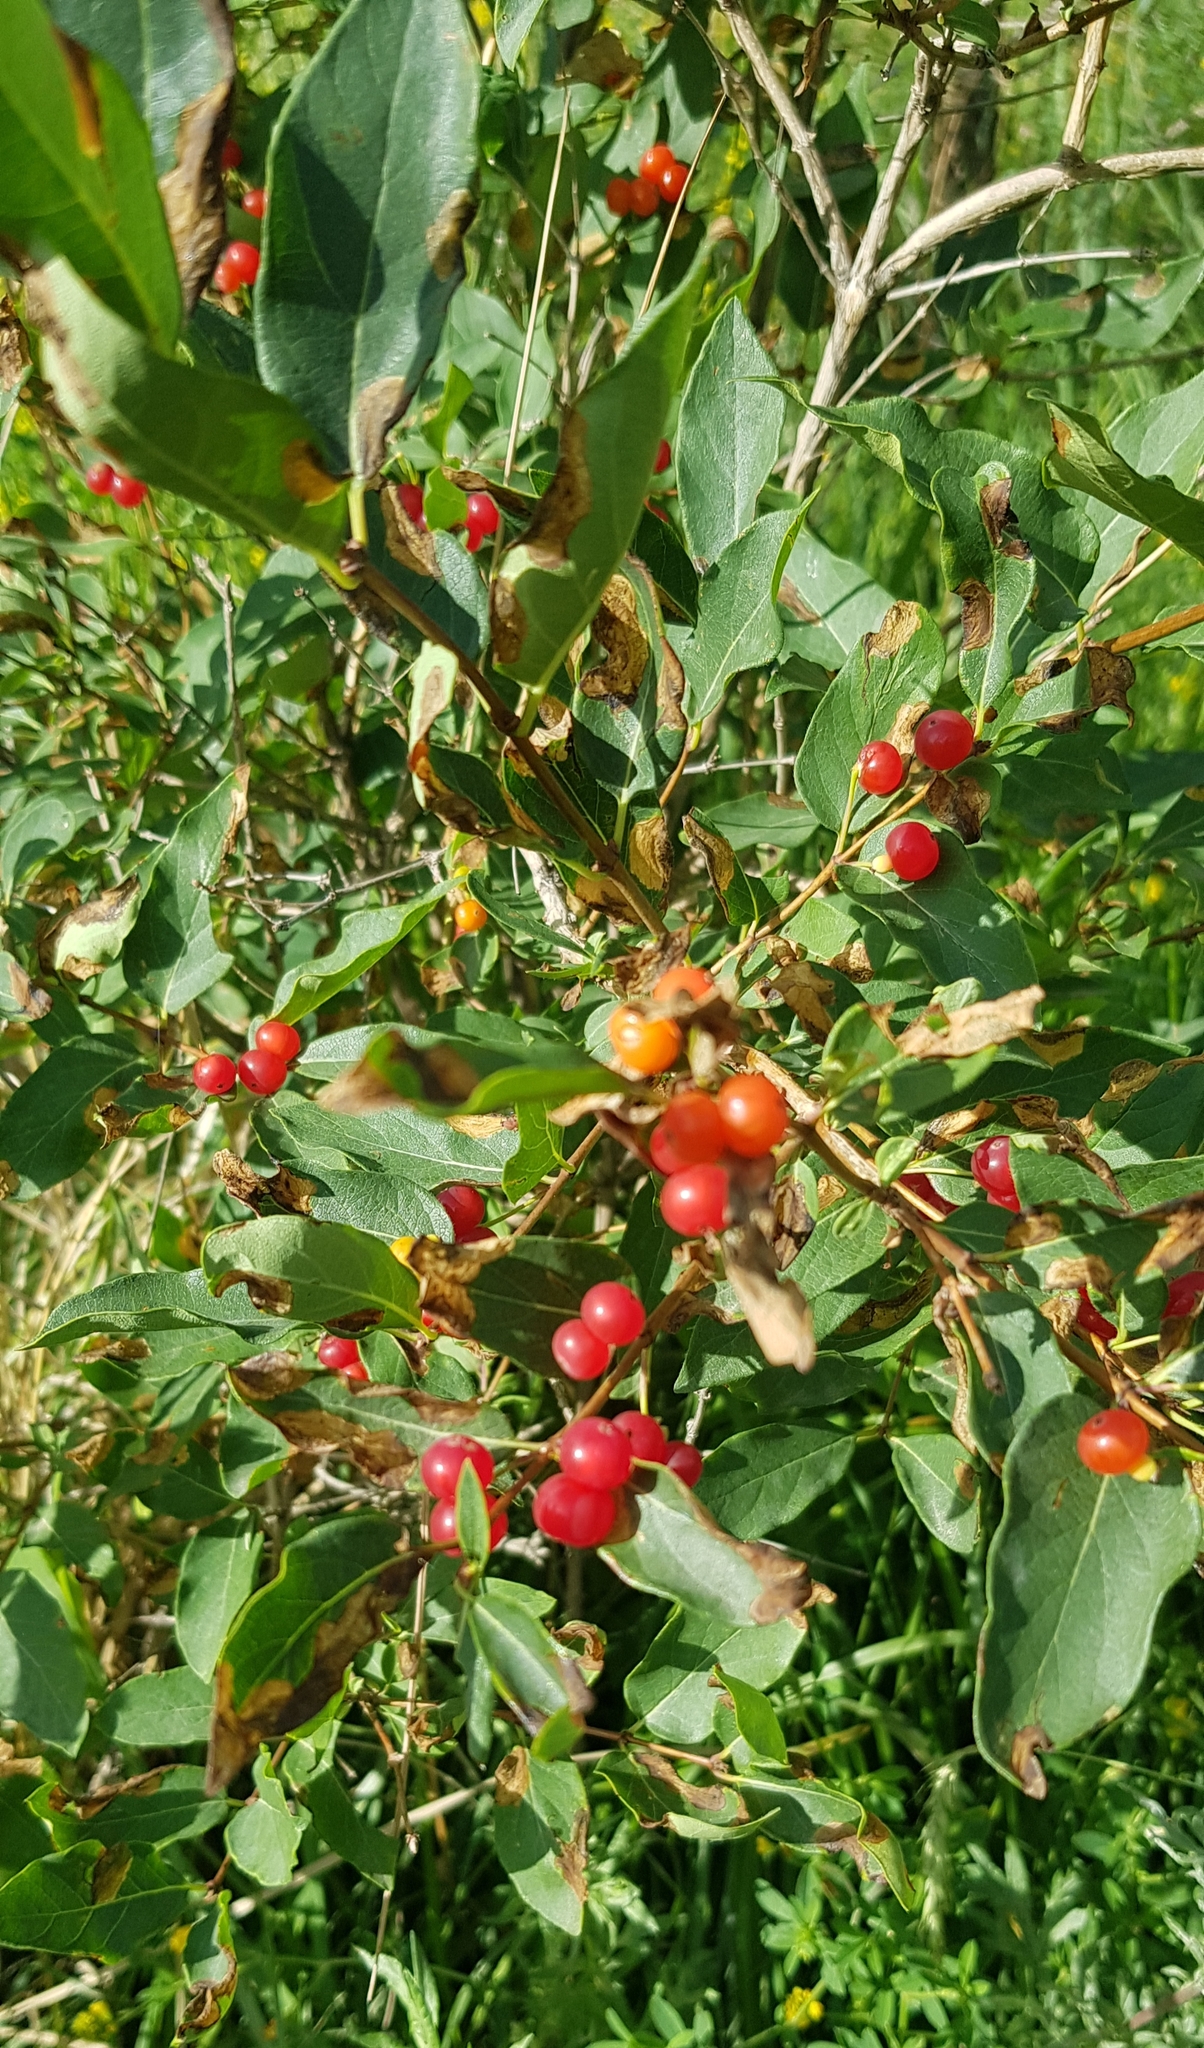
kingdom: Plantae
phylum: Tracheophyta
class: Magnoliopsida
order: Dipsacales
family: Caprifoliaceae
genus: Lonicera
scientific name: Lonicera tatarica
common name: Tatarian honeysuckle
